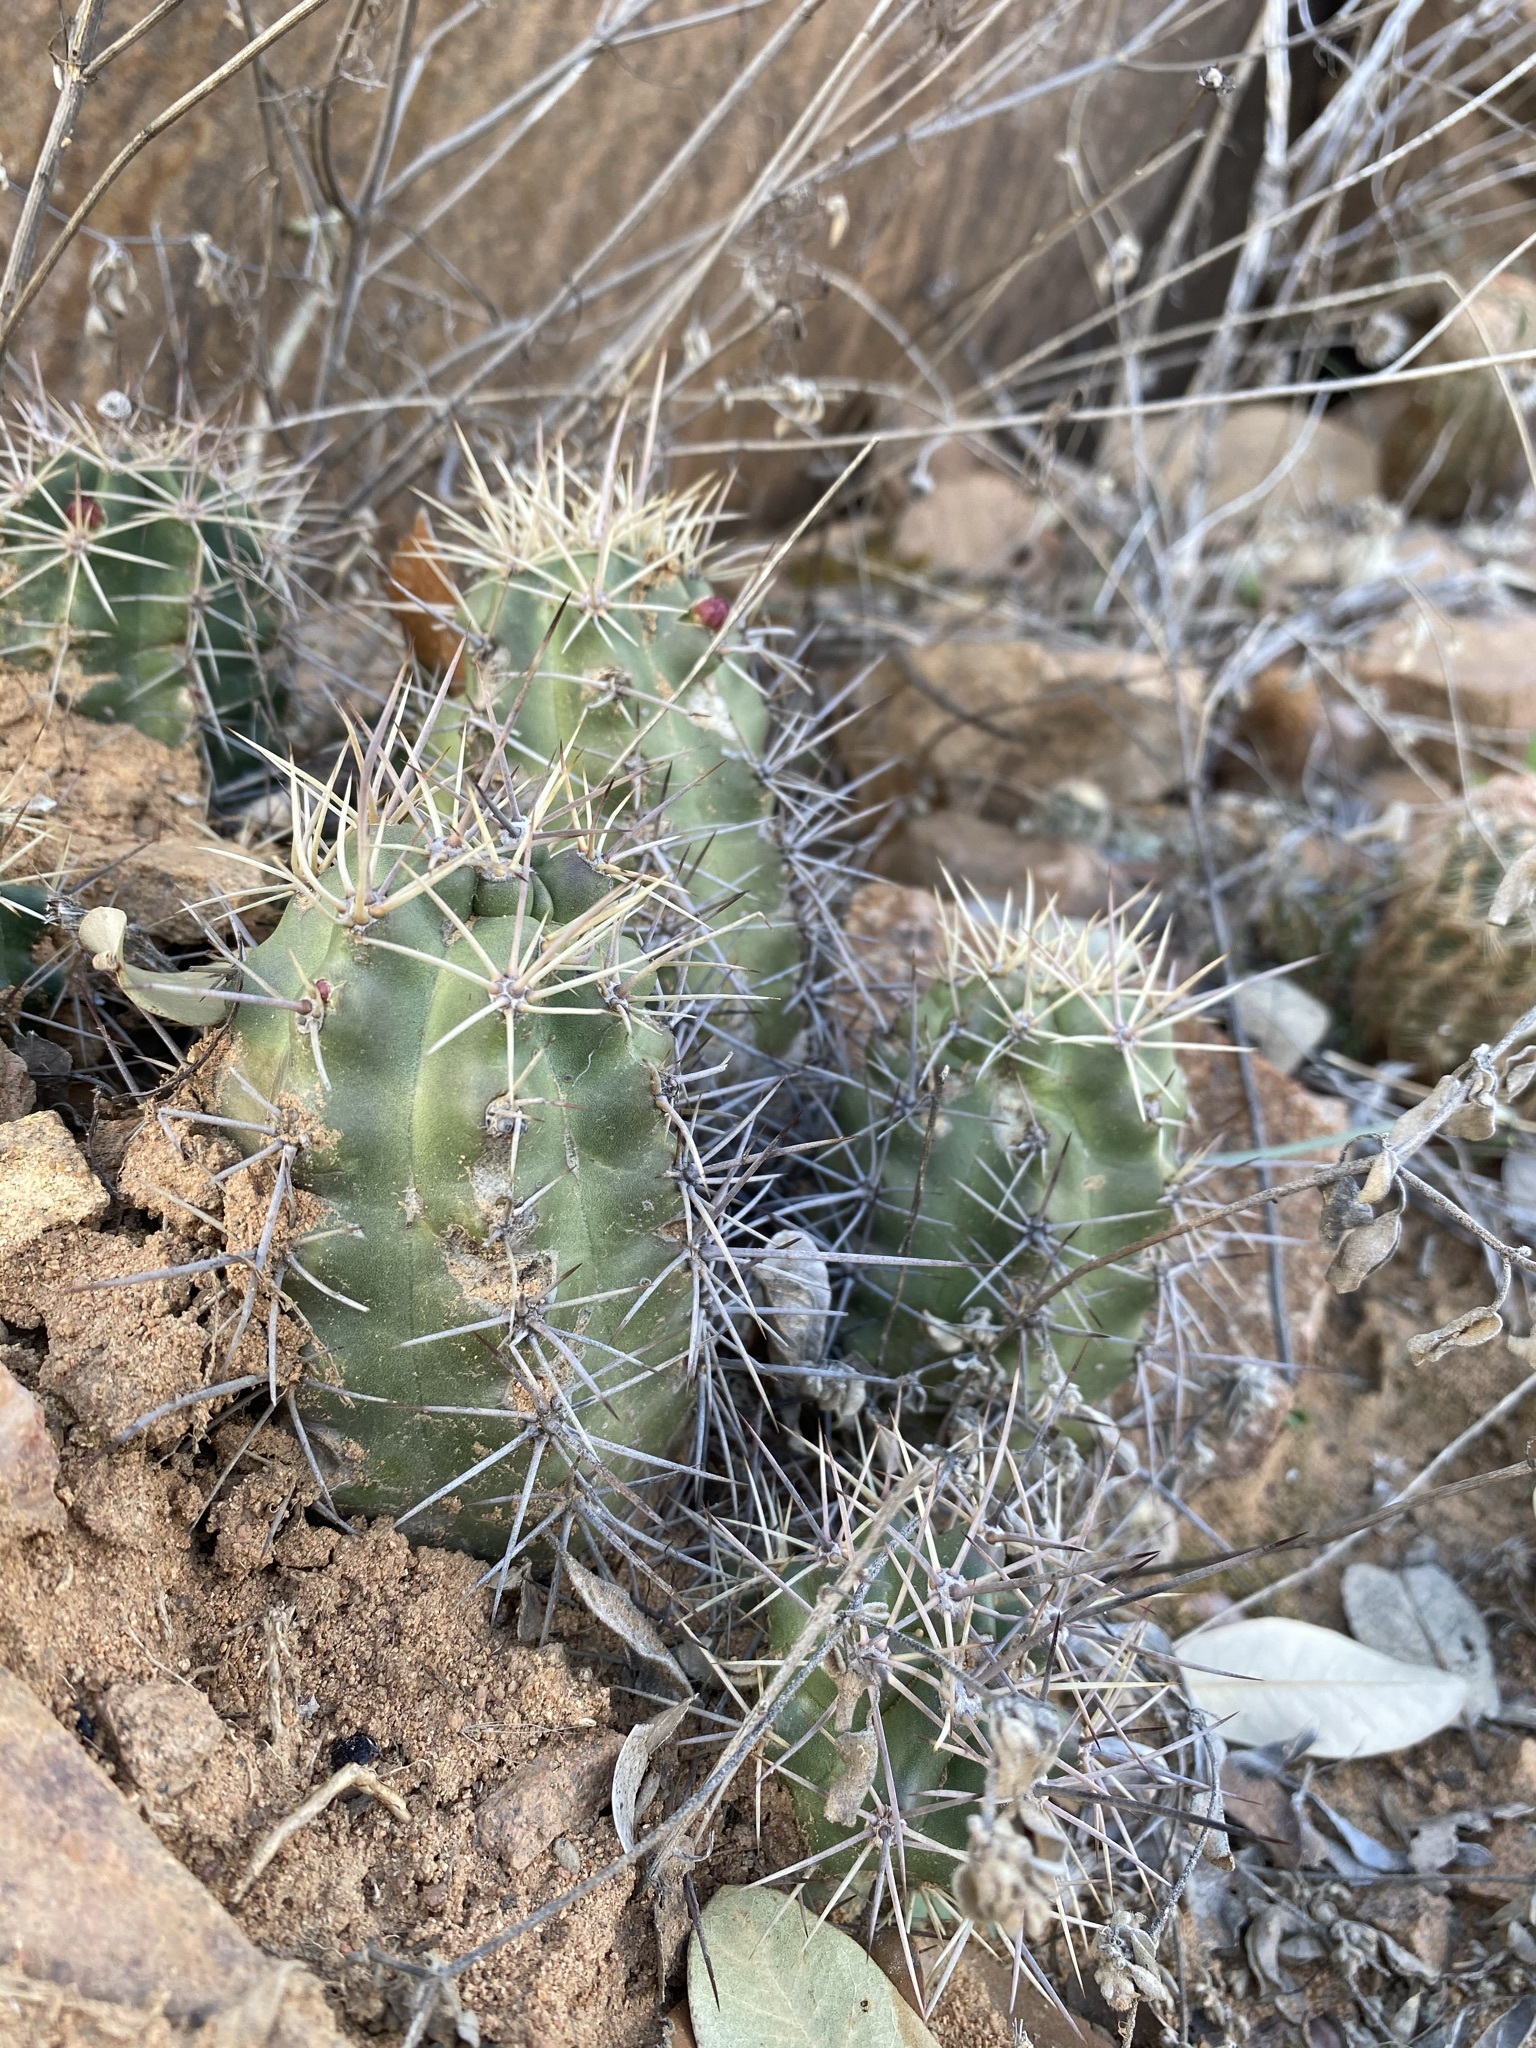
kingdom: Plantae
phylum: Tracheophyta
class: Magnoliopsida
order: Caryophyllales
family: Cactaceae
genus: Echinocereus
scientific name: Echinocereus coccineus
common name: Scarlet hedgehog cactus
